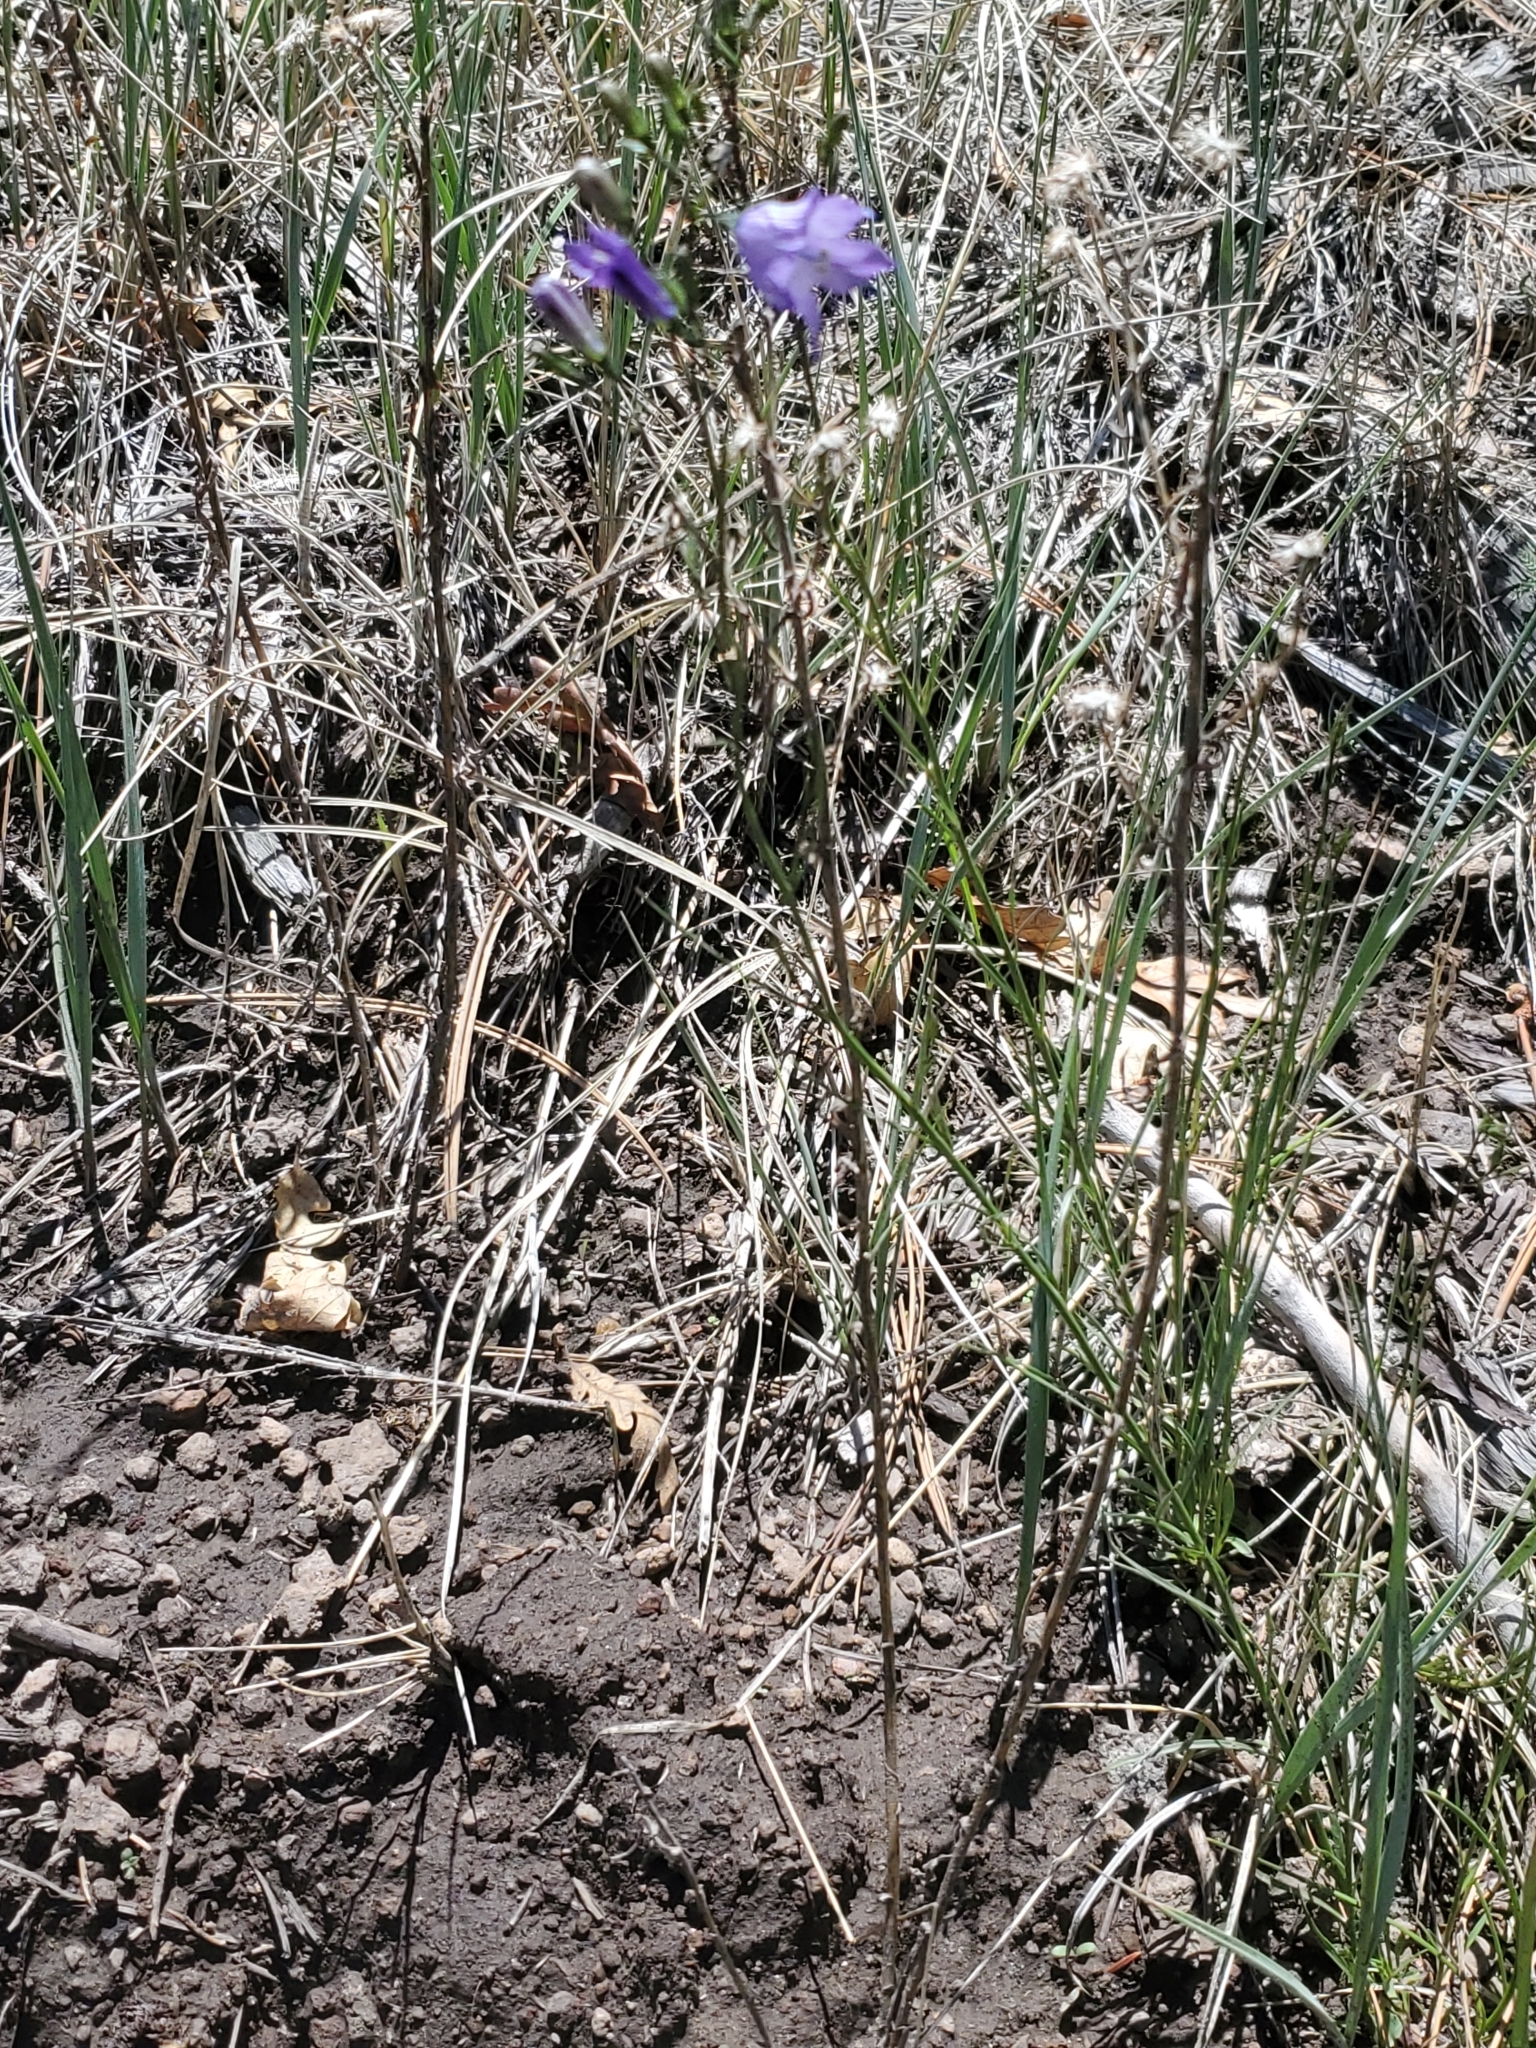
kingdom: Plantae
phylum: Tracheophyta
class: Magnoliopsida
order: Asterales
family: Campanulaceae
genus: Campanula
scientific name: Campanula petiolata
